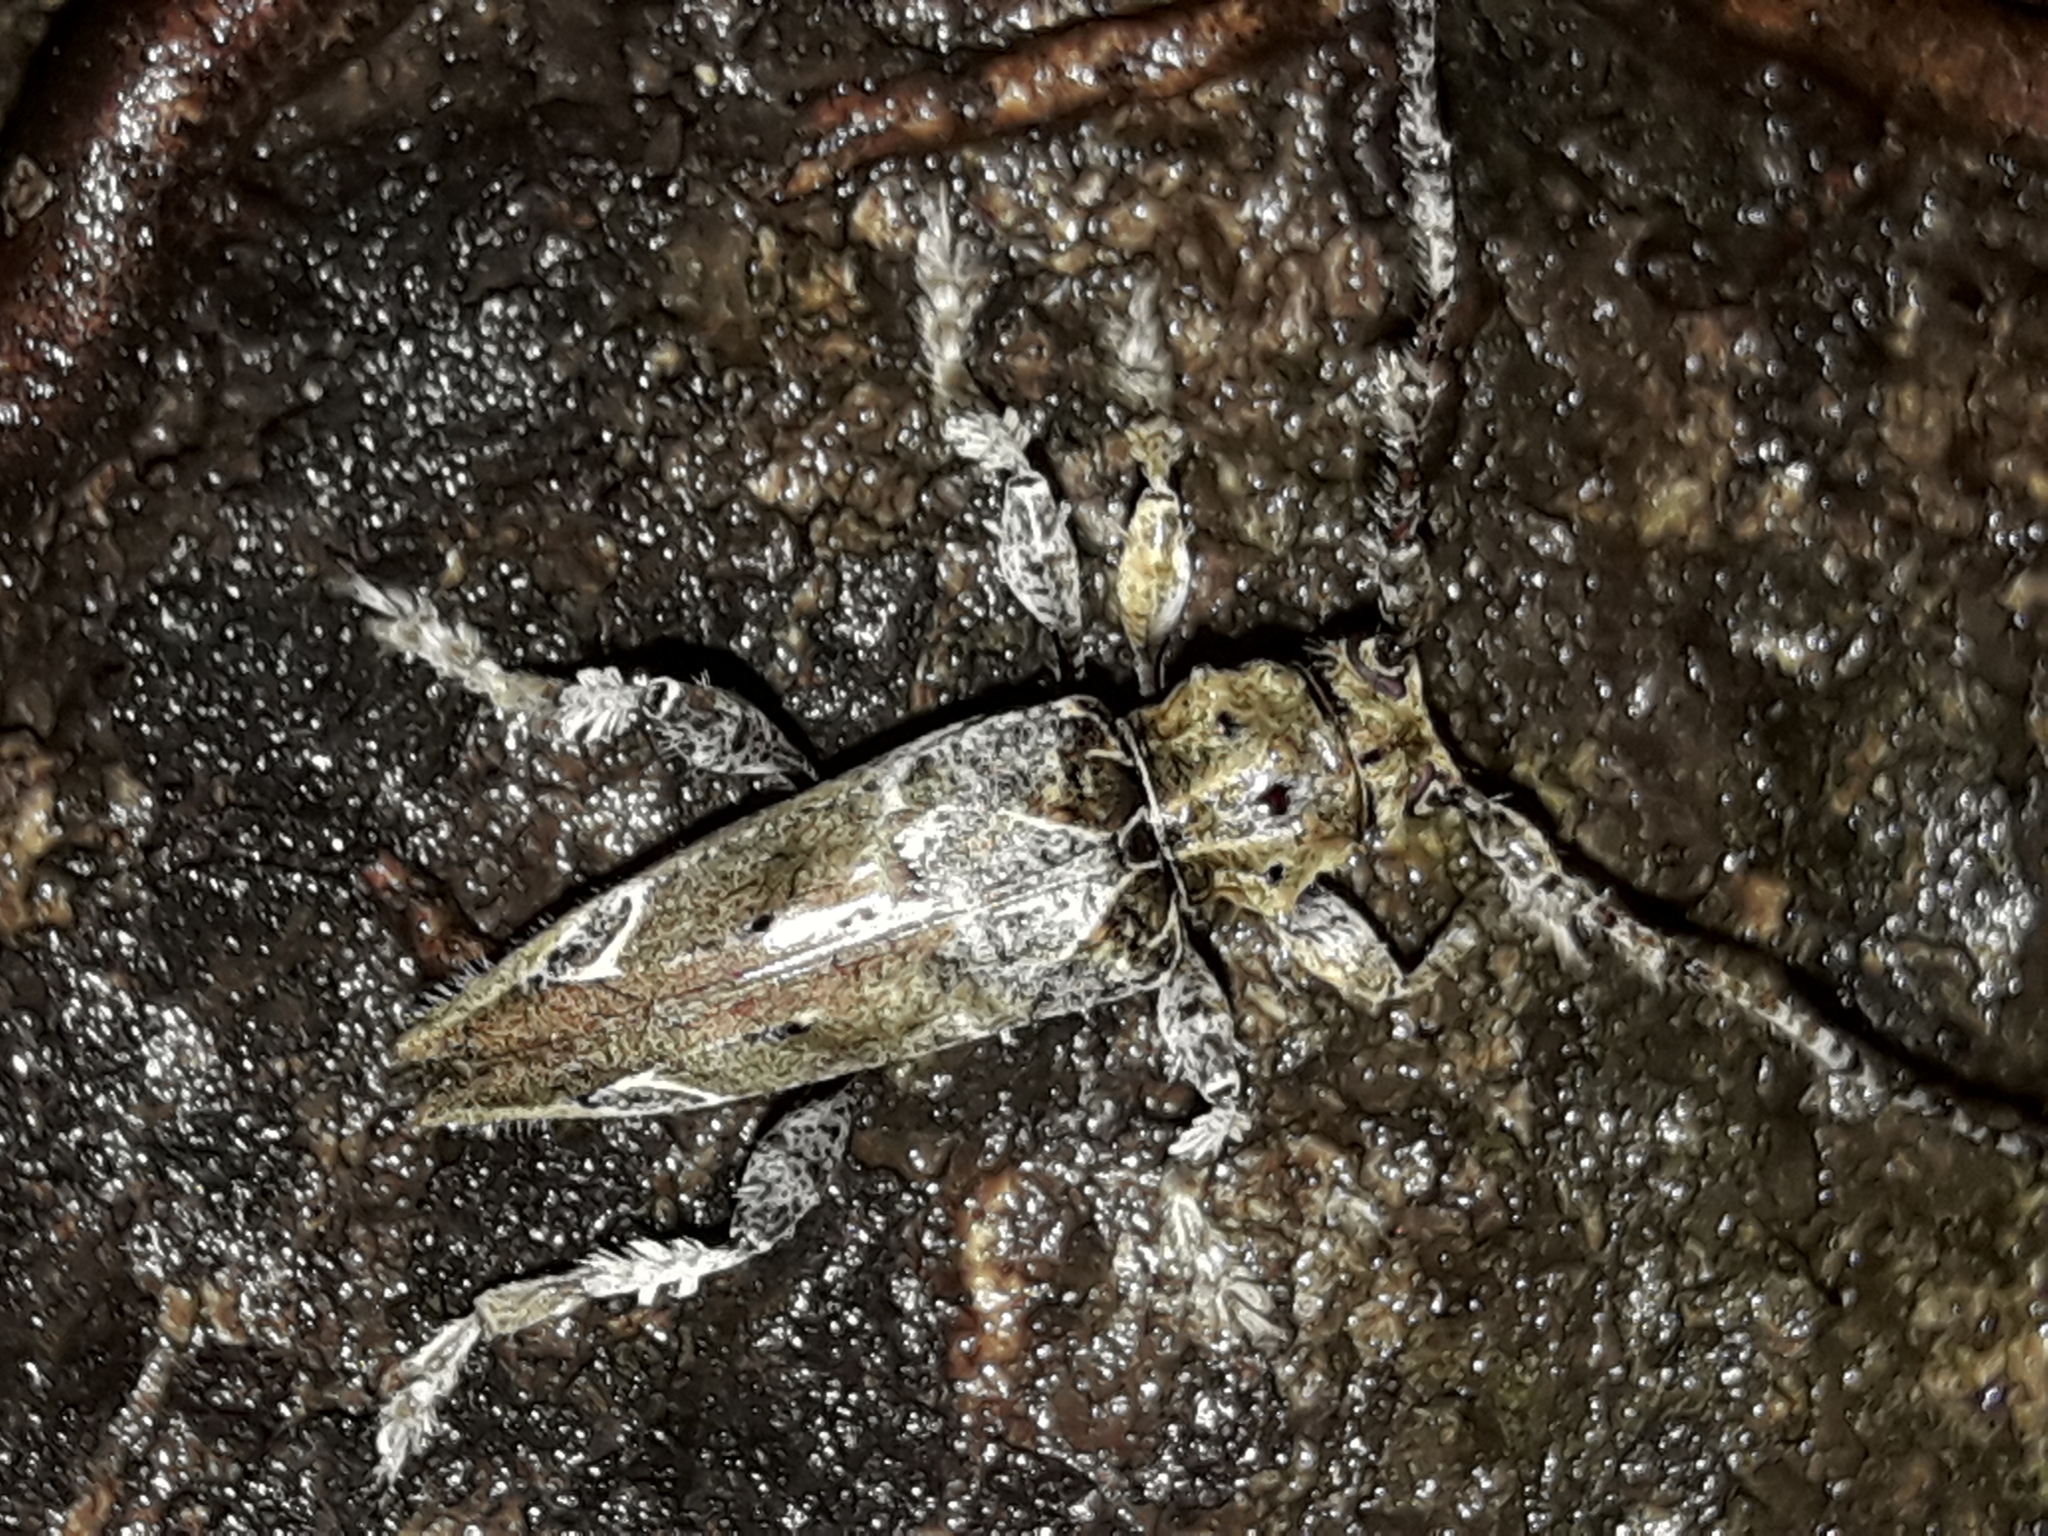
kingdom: Animalia
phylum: Arthropoda
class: Insecta
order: Coleoptera
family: Cerambycidae
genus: Tetrorea
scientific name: Tetrorea cilipes
